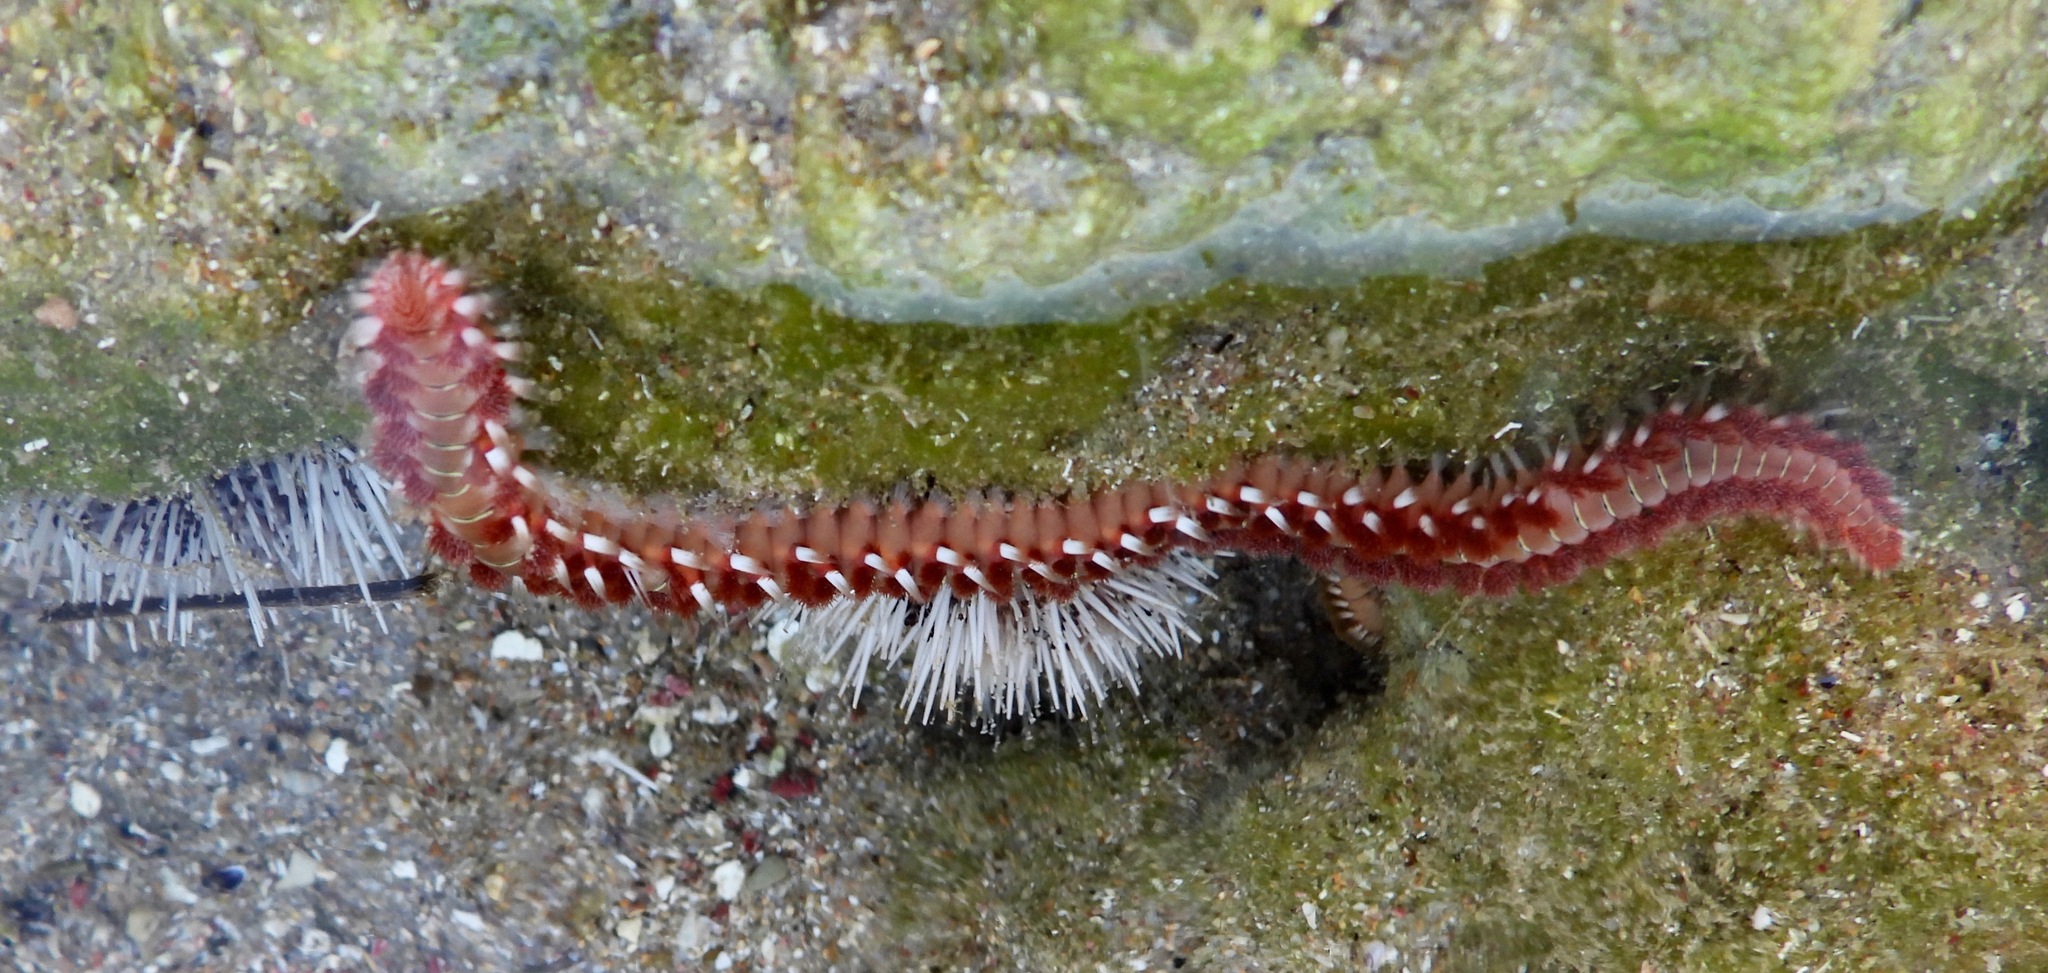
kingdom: Animalia
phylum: Annelida
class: Polychaeta
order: Amphinomida
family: Amphinomidae
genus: Hermodice
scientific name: Hermodice carunculata
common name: Bearded fireworm
